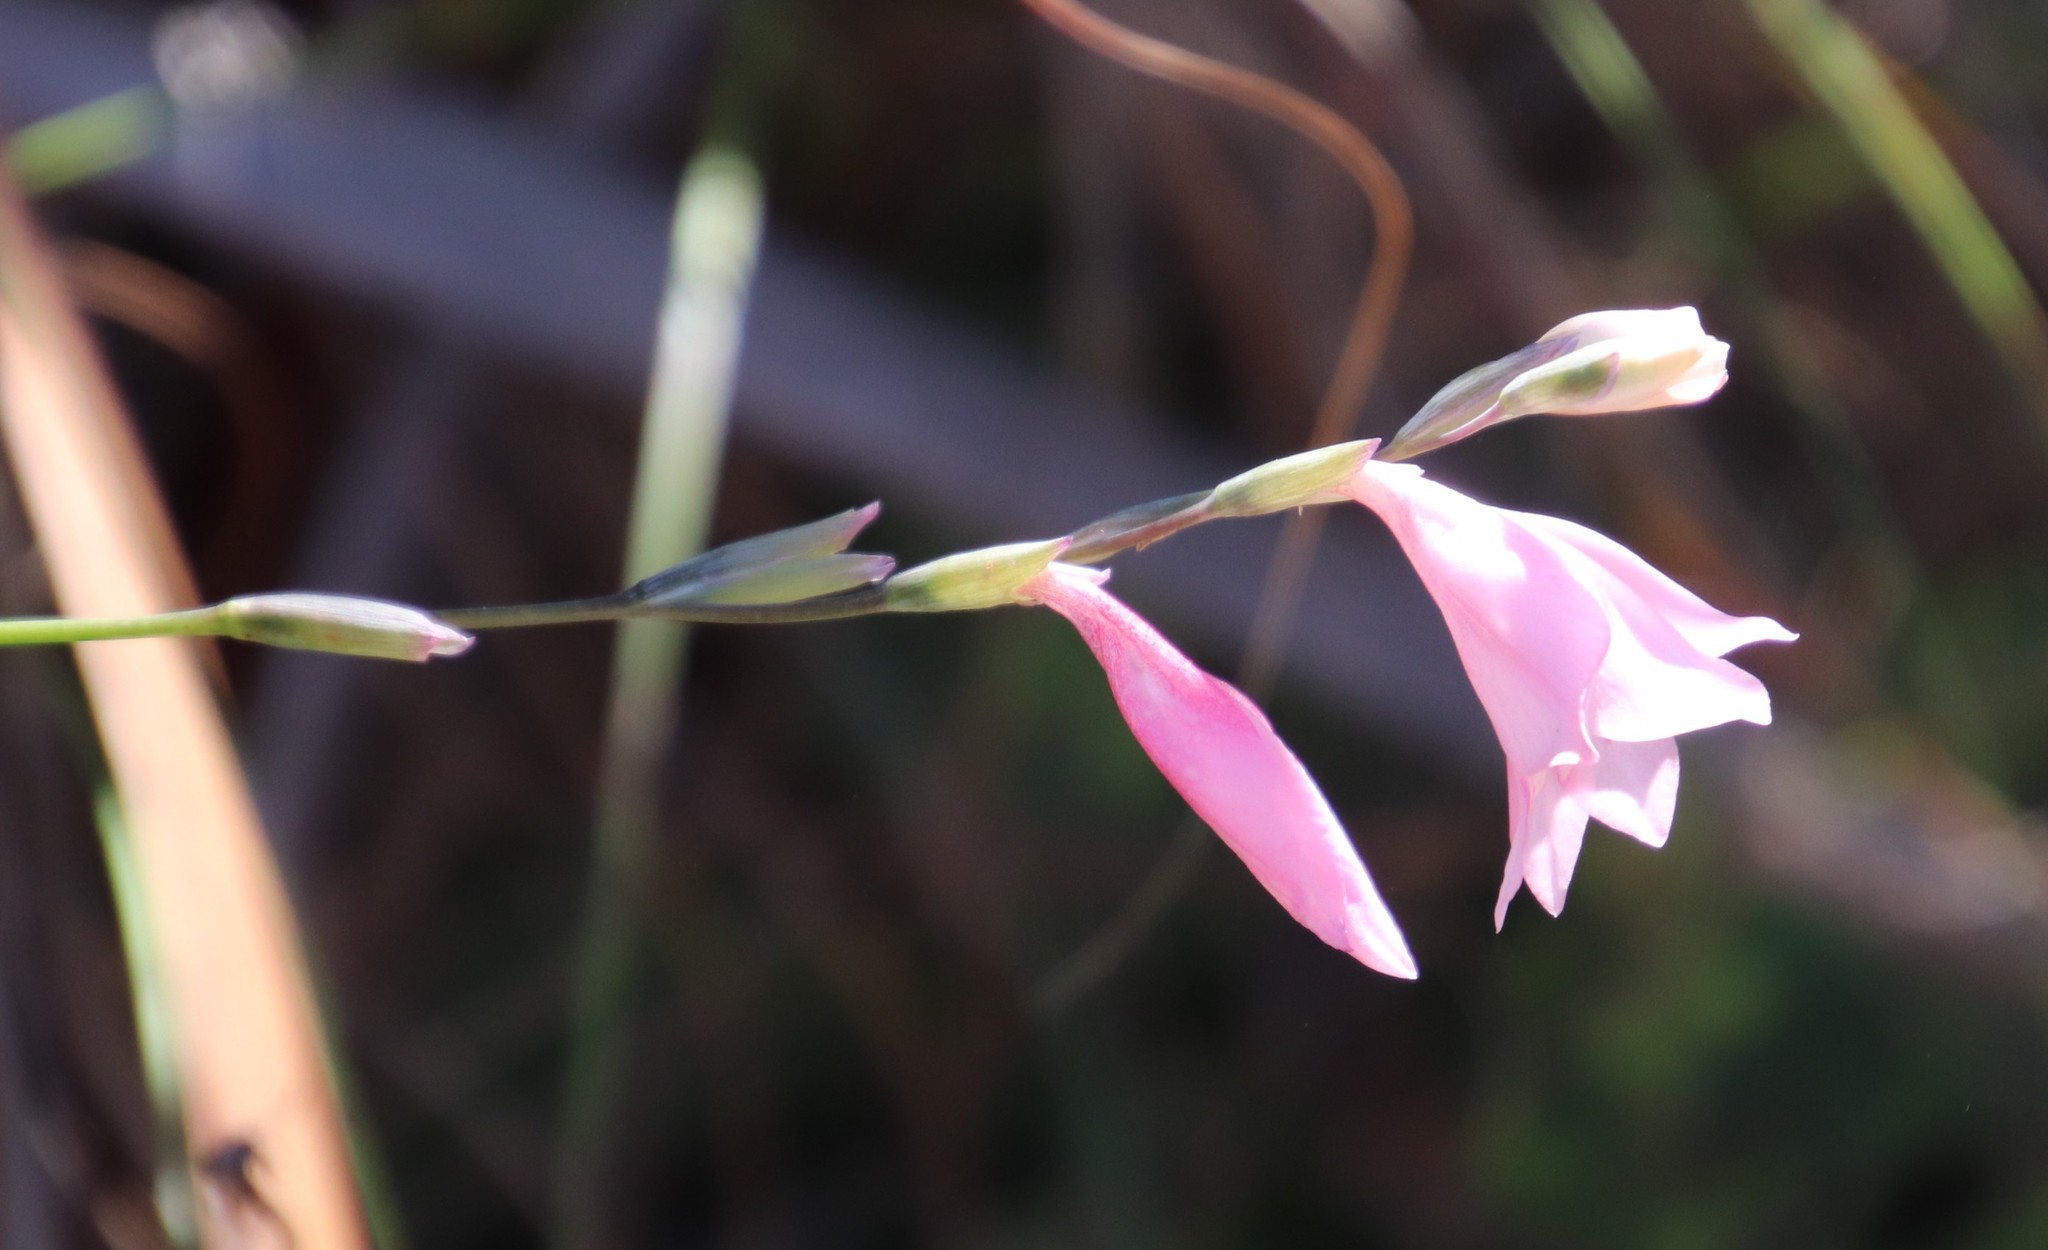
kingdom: Plantae
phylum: Tracheophyta
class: Liliopsida
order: Asparagales
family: Iridaceae
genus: Gladiolus
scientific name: Gladiolus brevifolius
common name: March pypie
